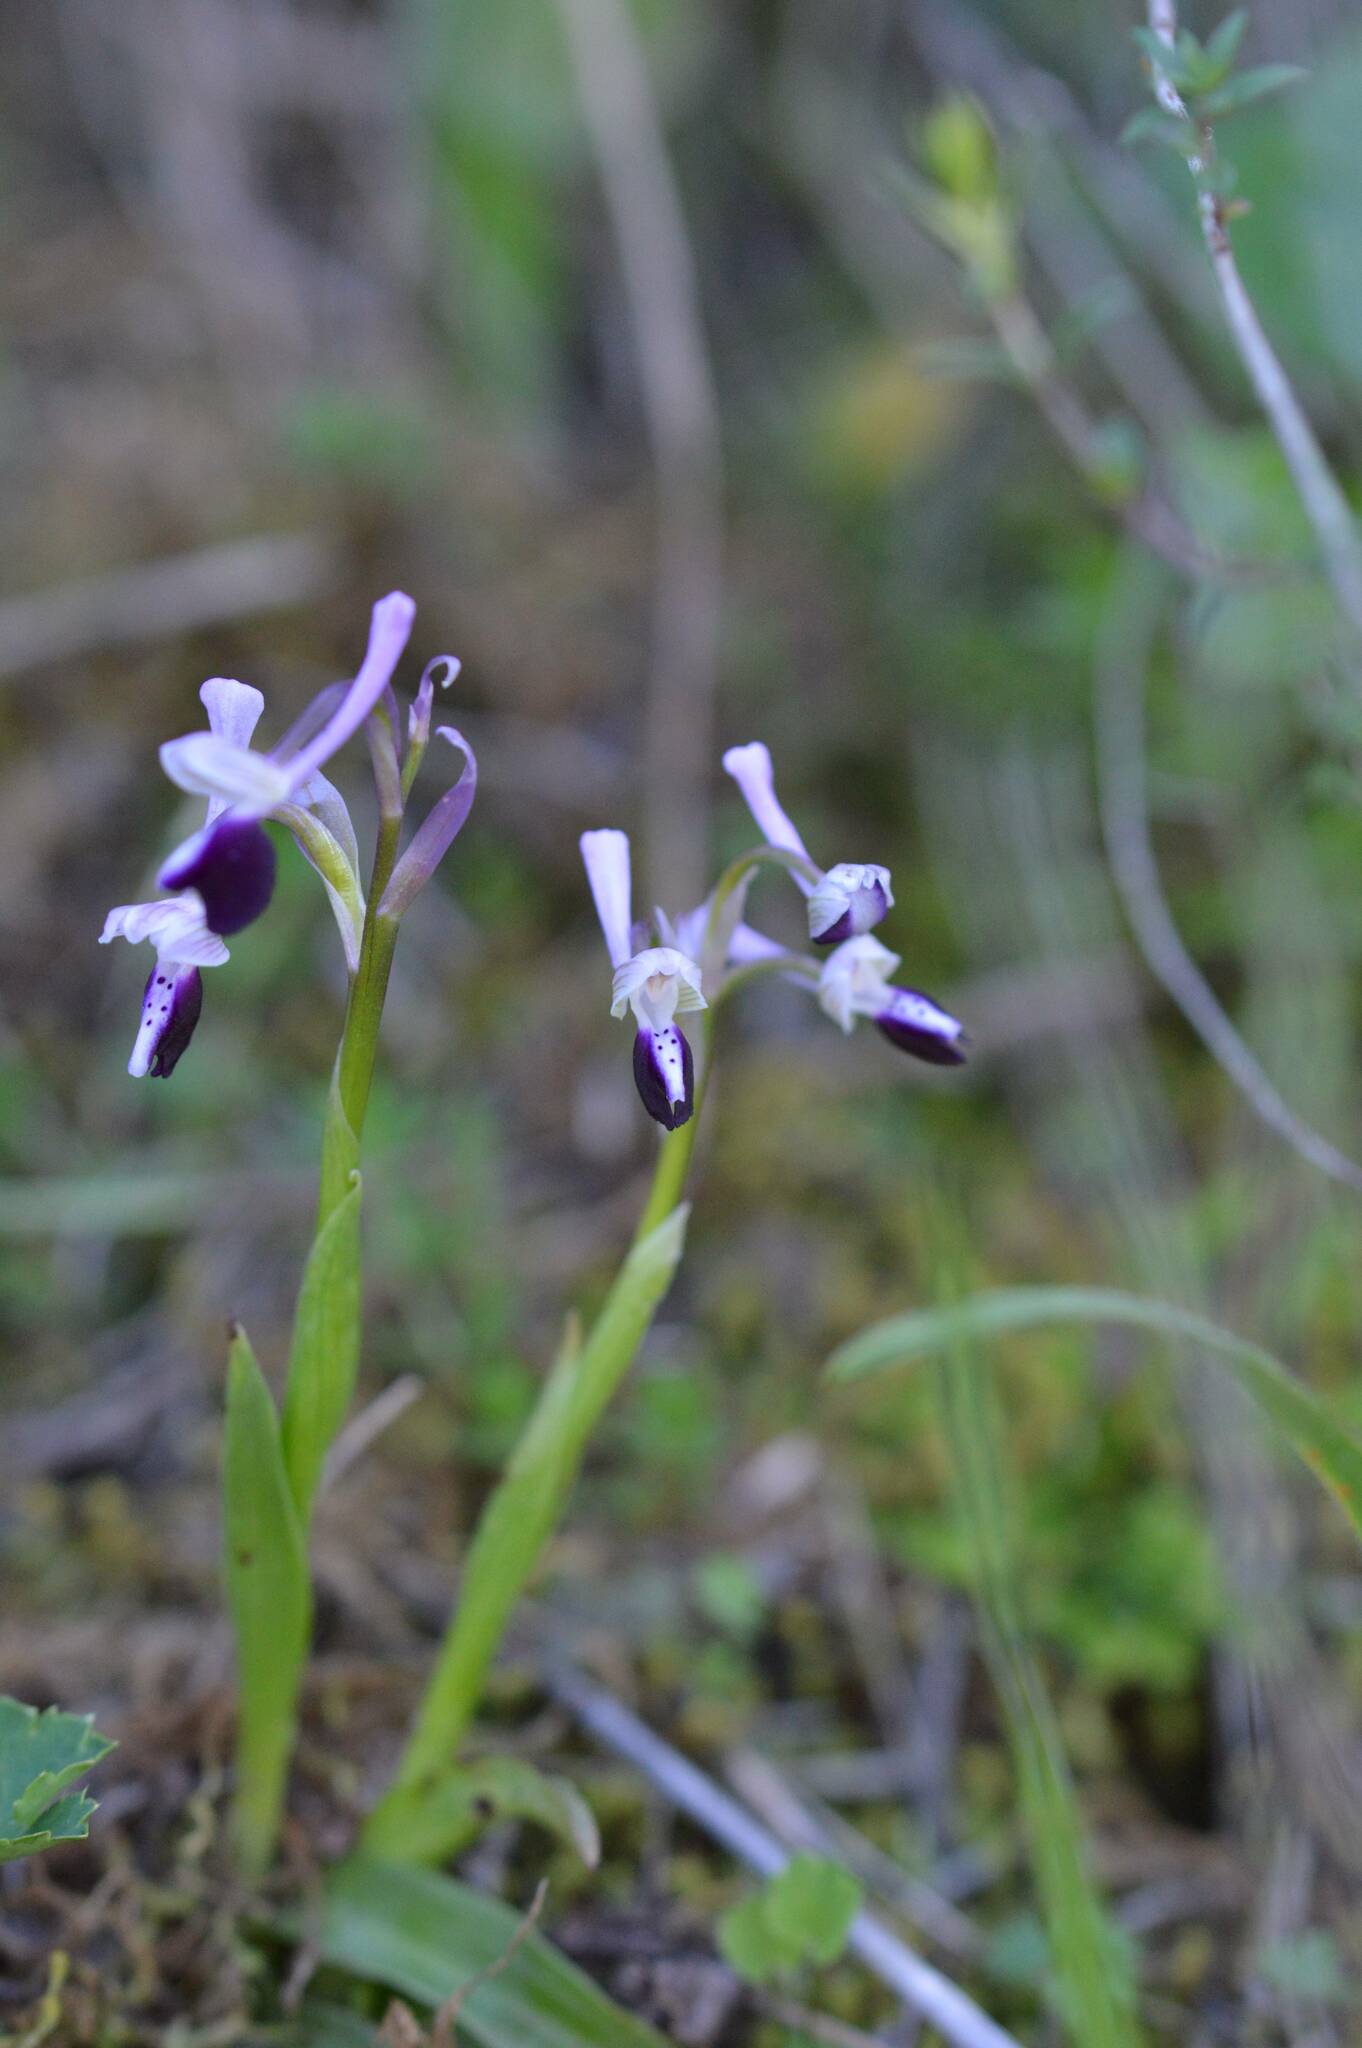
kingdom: Plantae
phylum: Tracheophyta
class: Liliopsida
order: Asparagales
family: Orchidaceae
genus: Anacamptis
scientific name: Anacamptis morio
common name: Green-winged orchid
